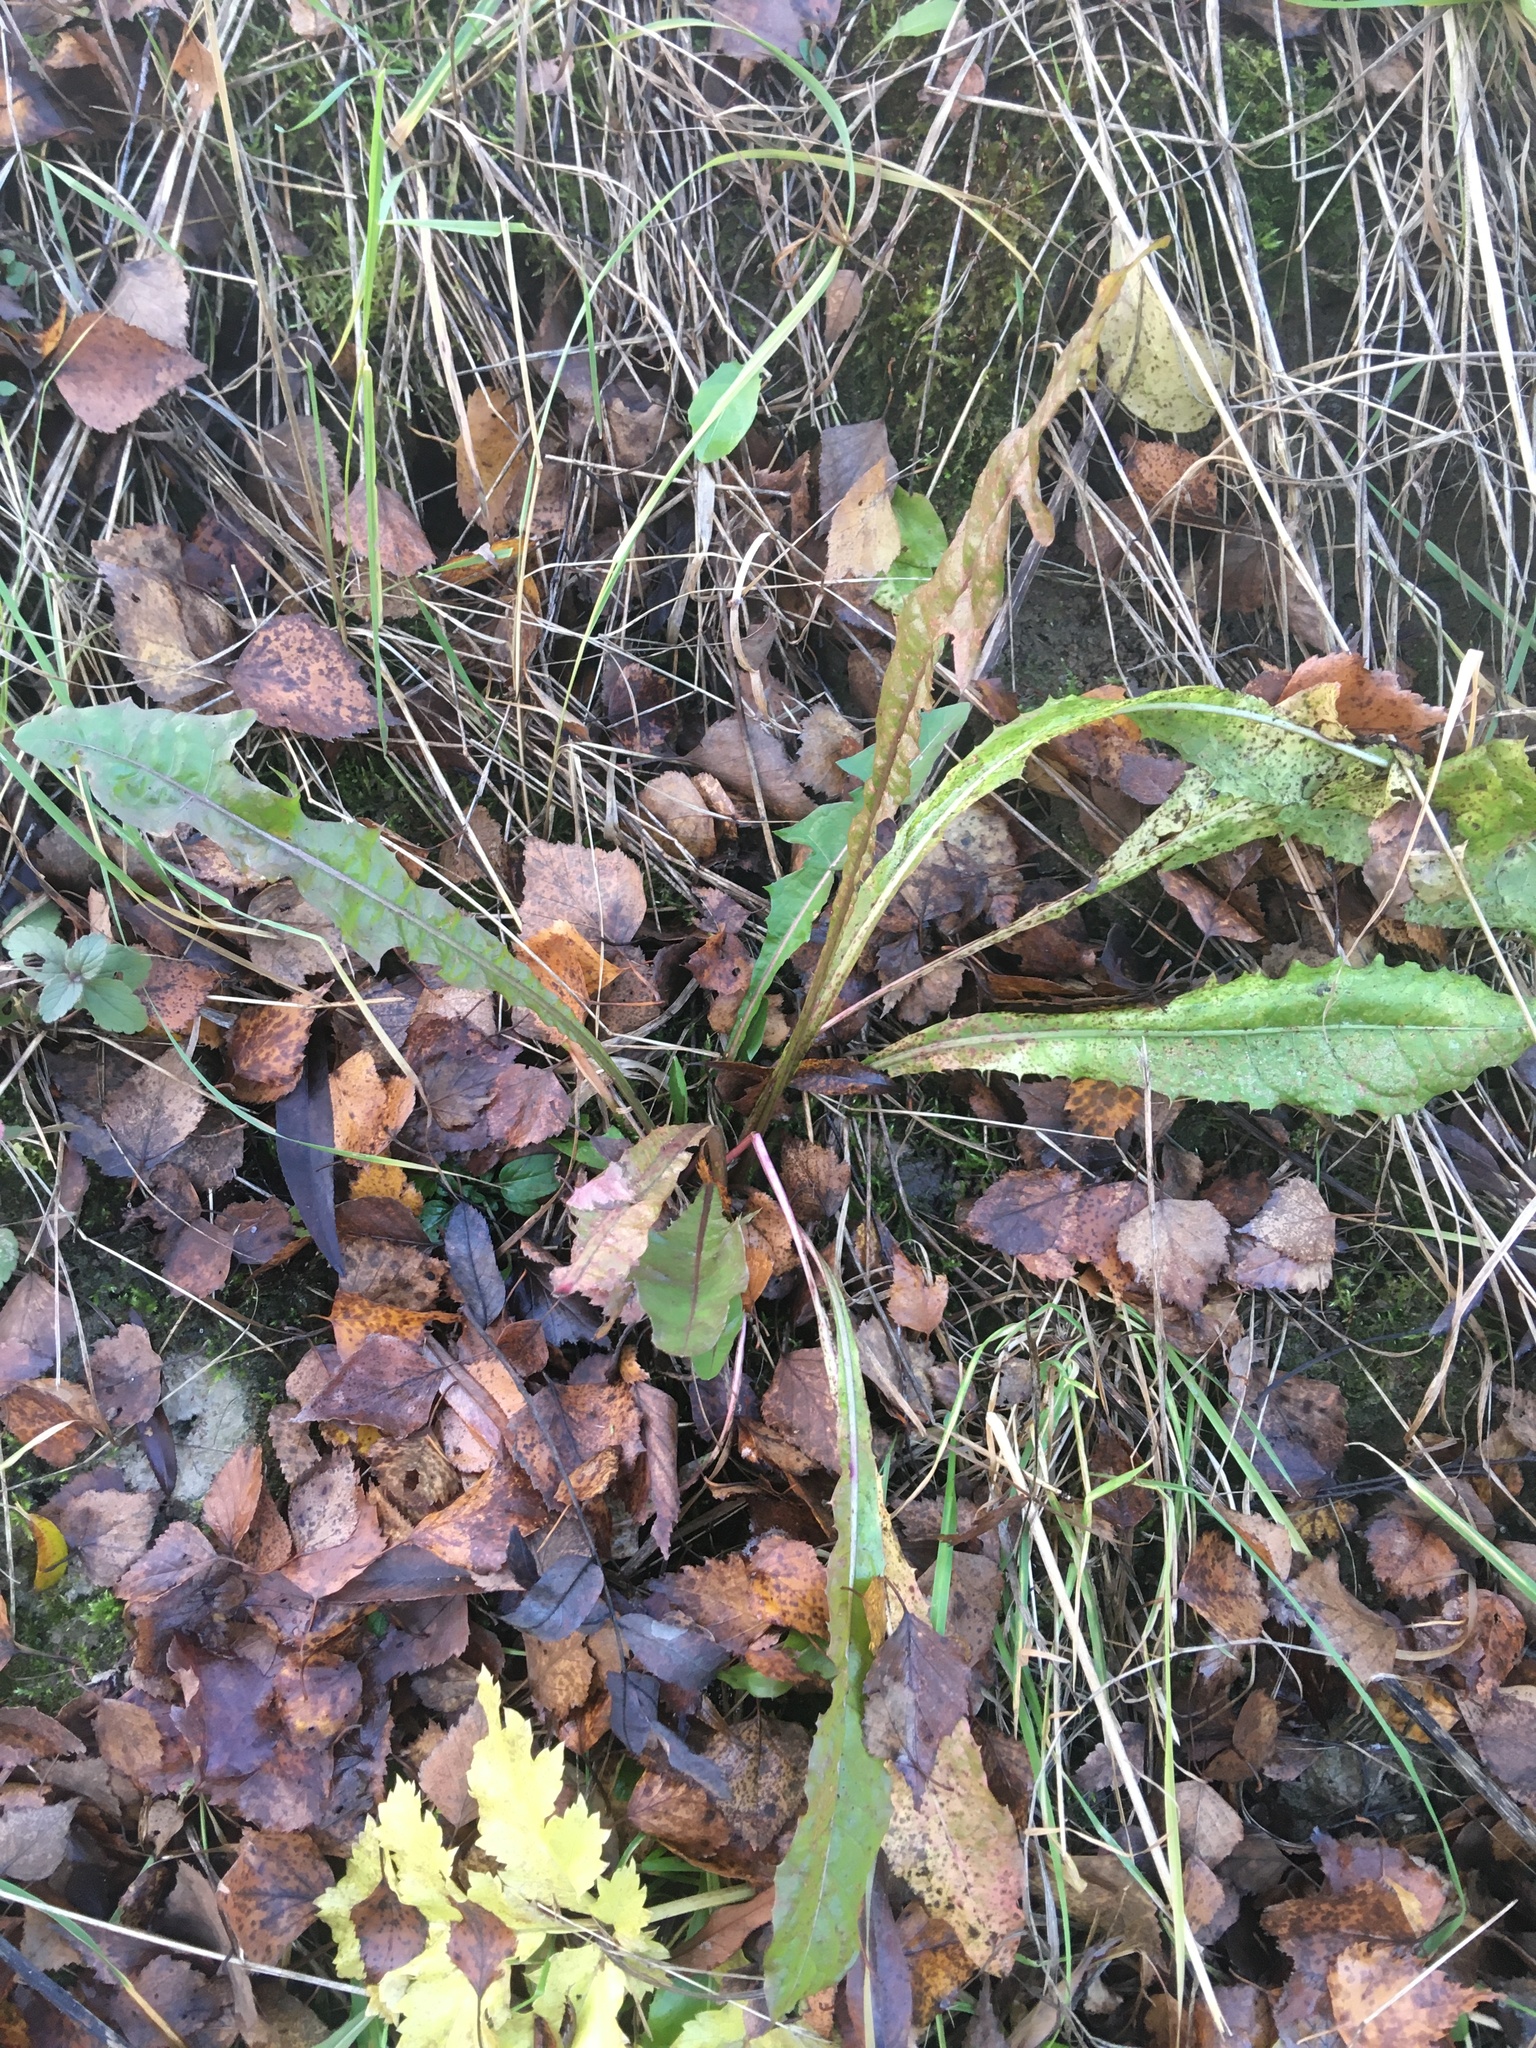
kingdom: Plantae
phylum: Tracheophyta
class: Magnoliopsida
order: Asterales
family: Asteraceae
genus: Taraxacum
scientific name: Taraxacum officinale
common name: Common dandelion
